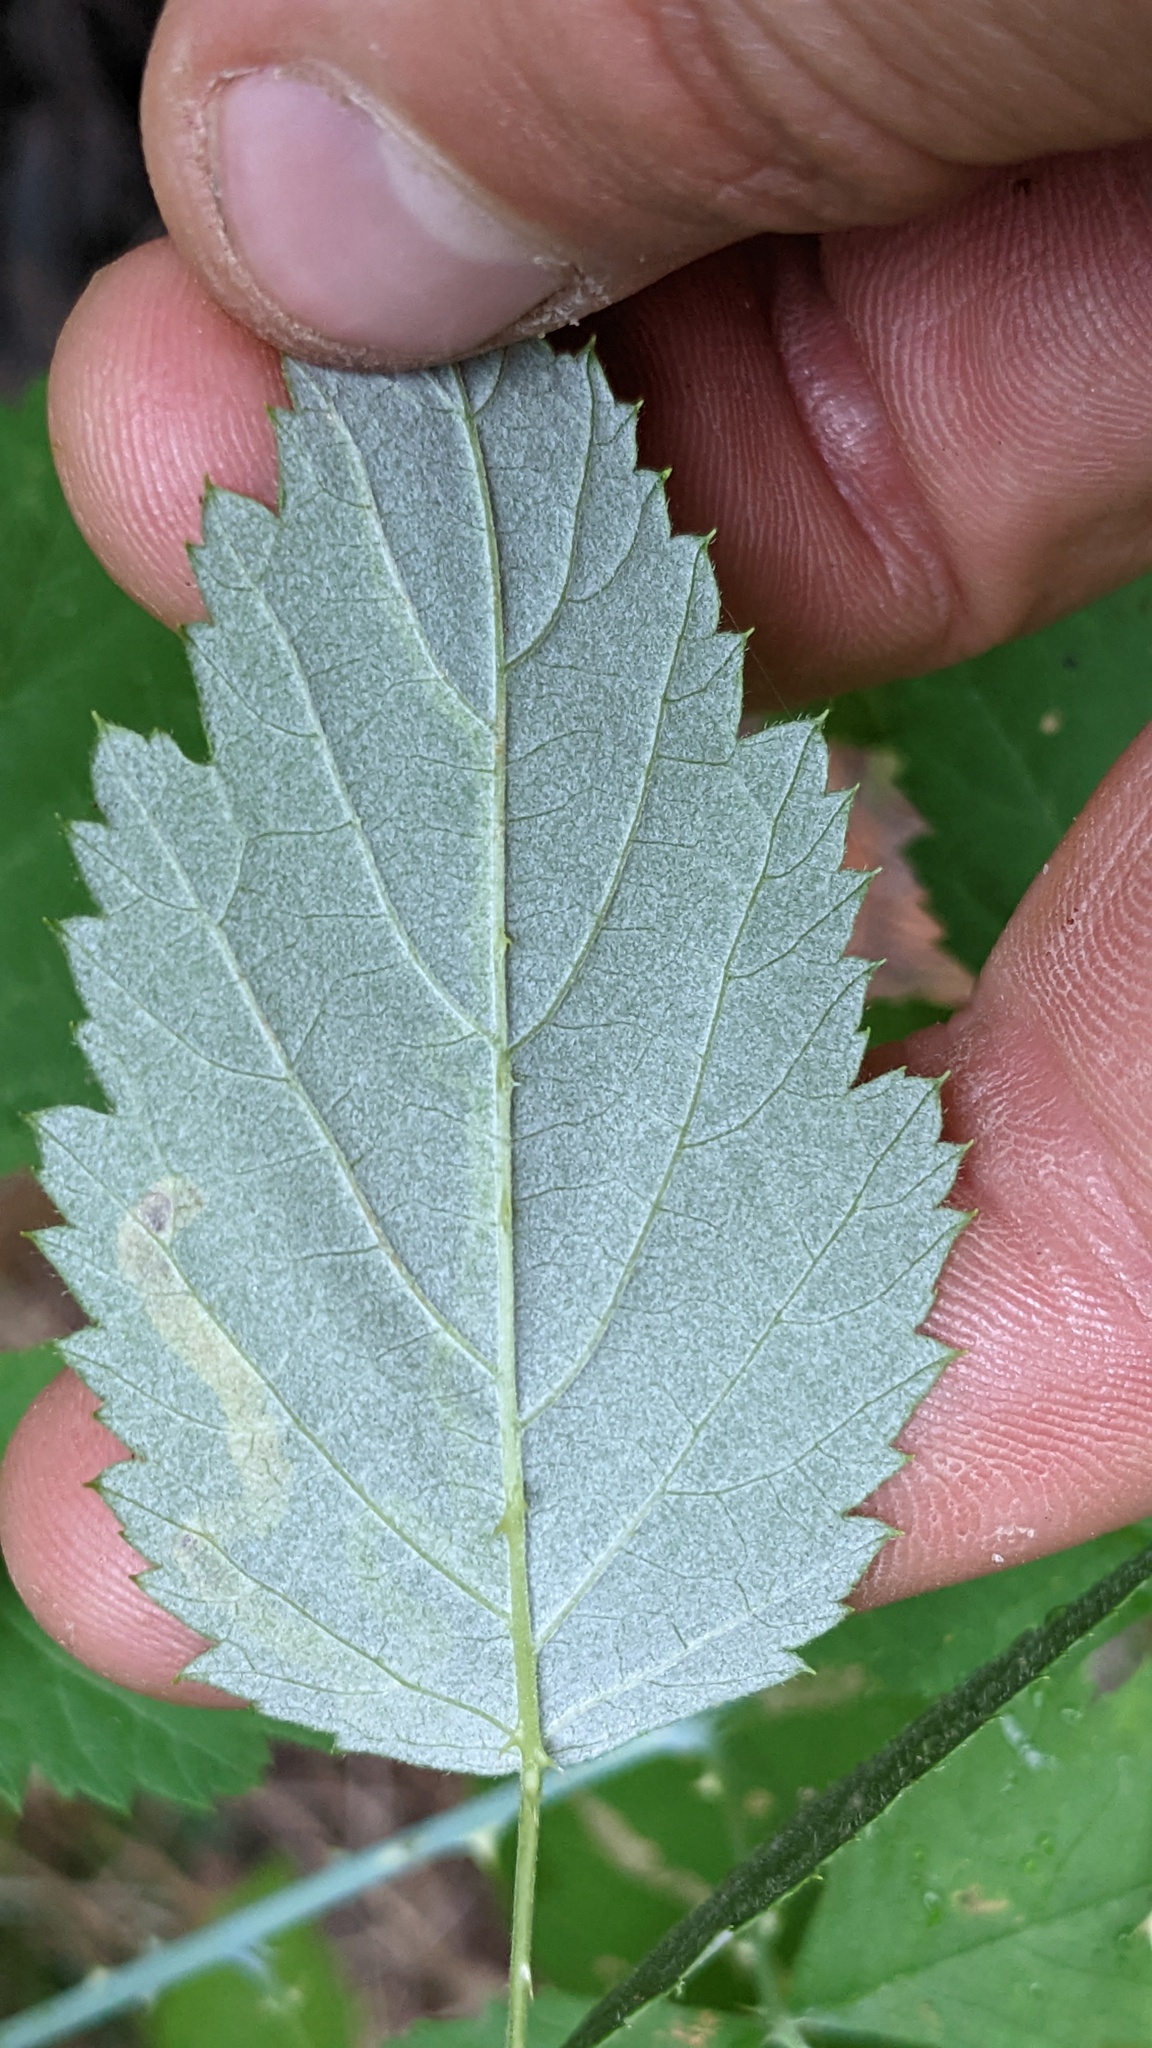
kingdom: Animalia
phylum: Arthropoda
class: Insecta
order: Diptera
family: Agromyzidae
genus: Agromyza
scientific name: Agromyza vockerothi
